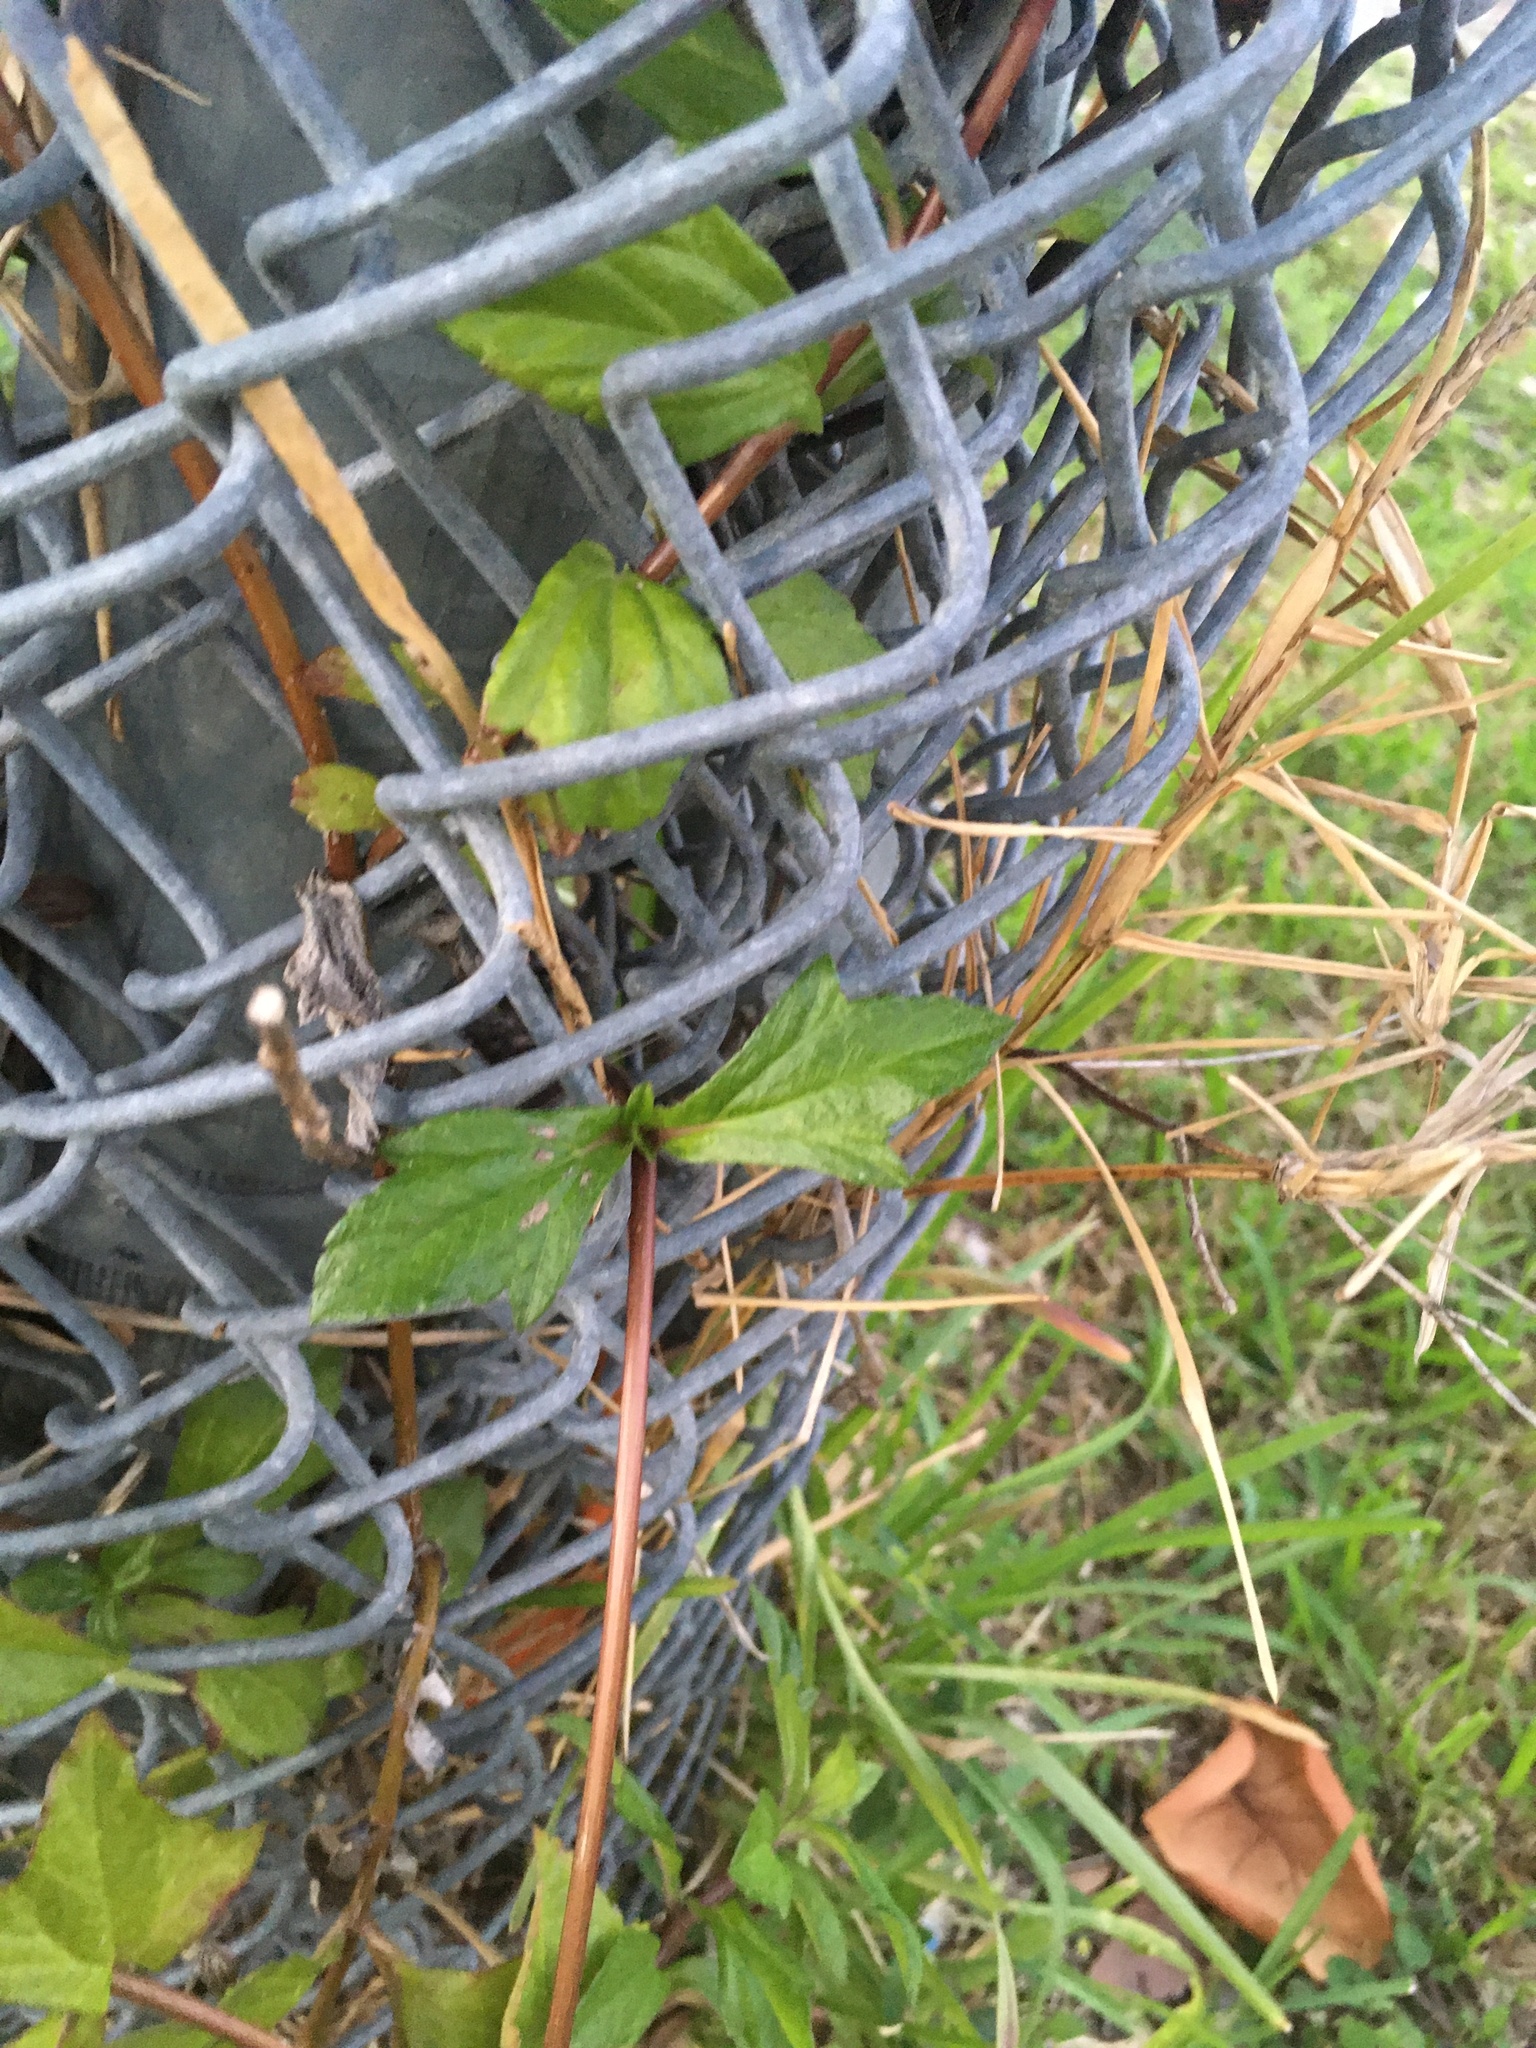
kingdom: Plantae
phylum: Tracheophyta
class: Magnoliopsida
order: Asterales
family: Asteraceae
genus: Sphagneticola
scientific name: Sphagneticola trilobata
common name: Bay biscayne creeping-oxeye
